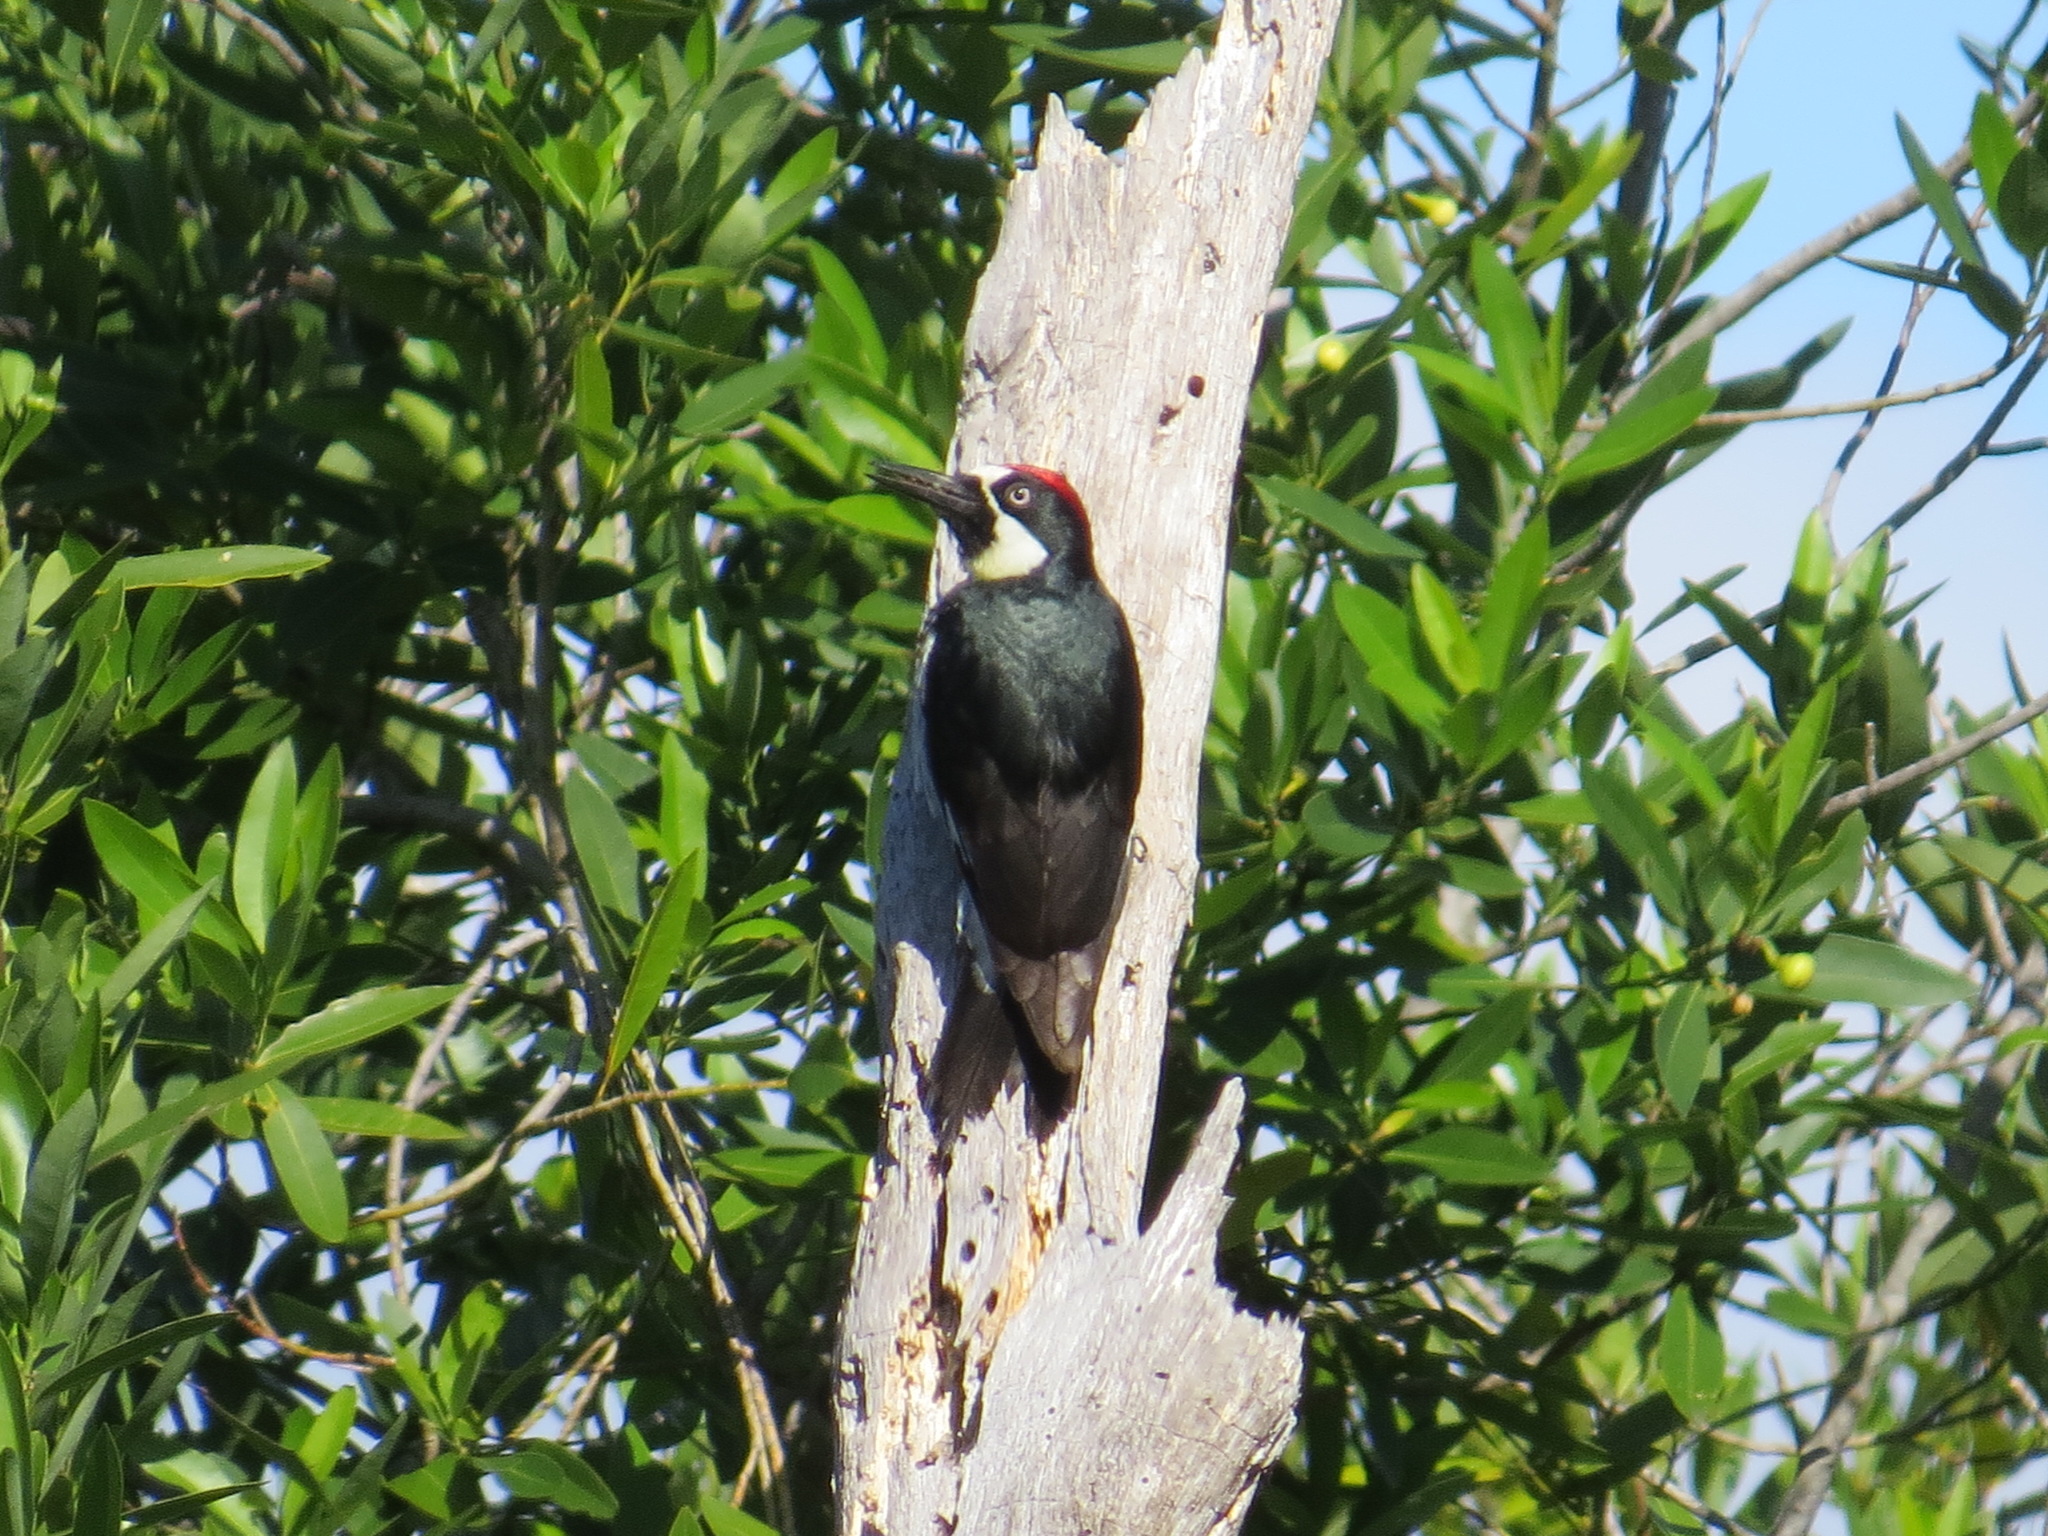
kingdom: Animalia
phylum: Chordata
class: Aves
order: Piciformes
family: Picidae
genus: Melanerpes
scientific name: Melanerpes formicivorus
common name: Acorn woodpecker
